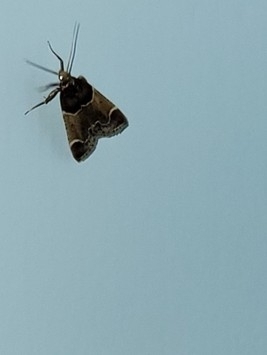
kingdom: Animalia
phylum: Arthropoda
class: Insecta
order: Lepidoptera
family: Pyralidae
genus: Pyralis
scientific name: Pyralis farinalis
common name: Meal moth
